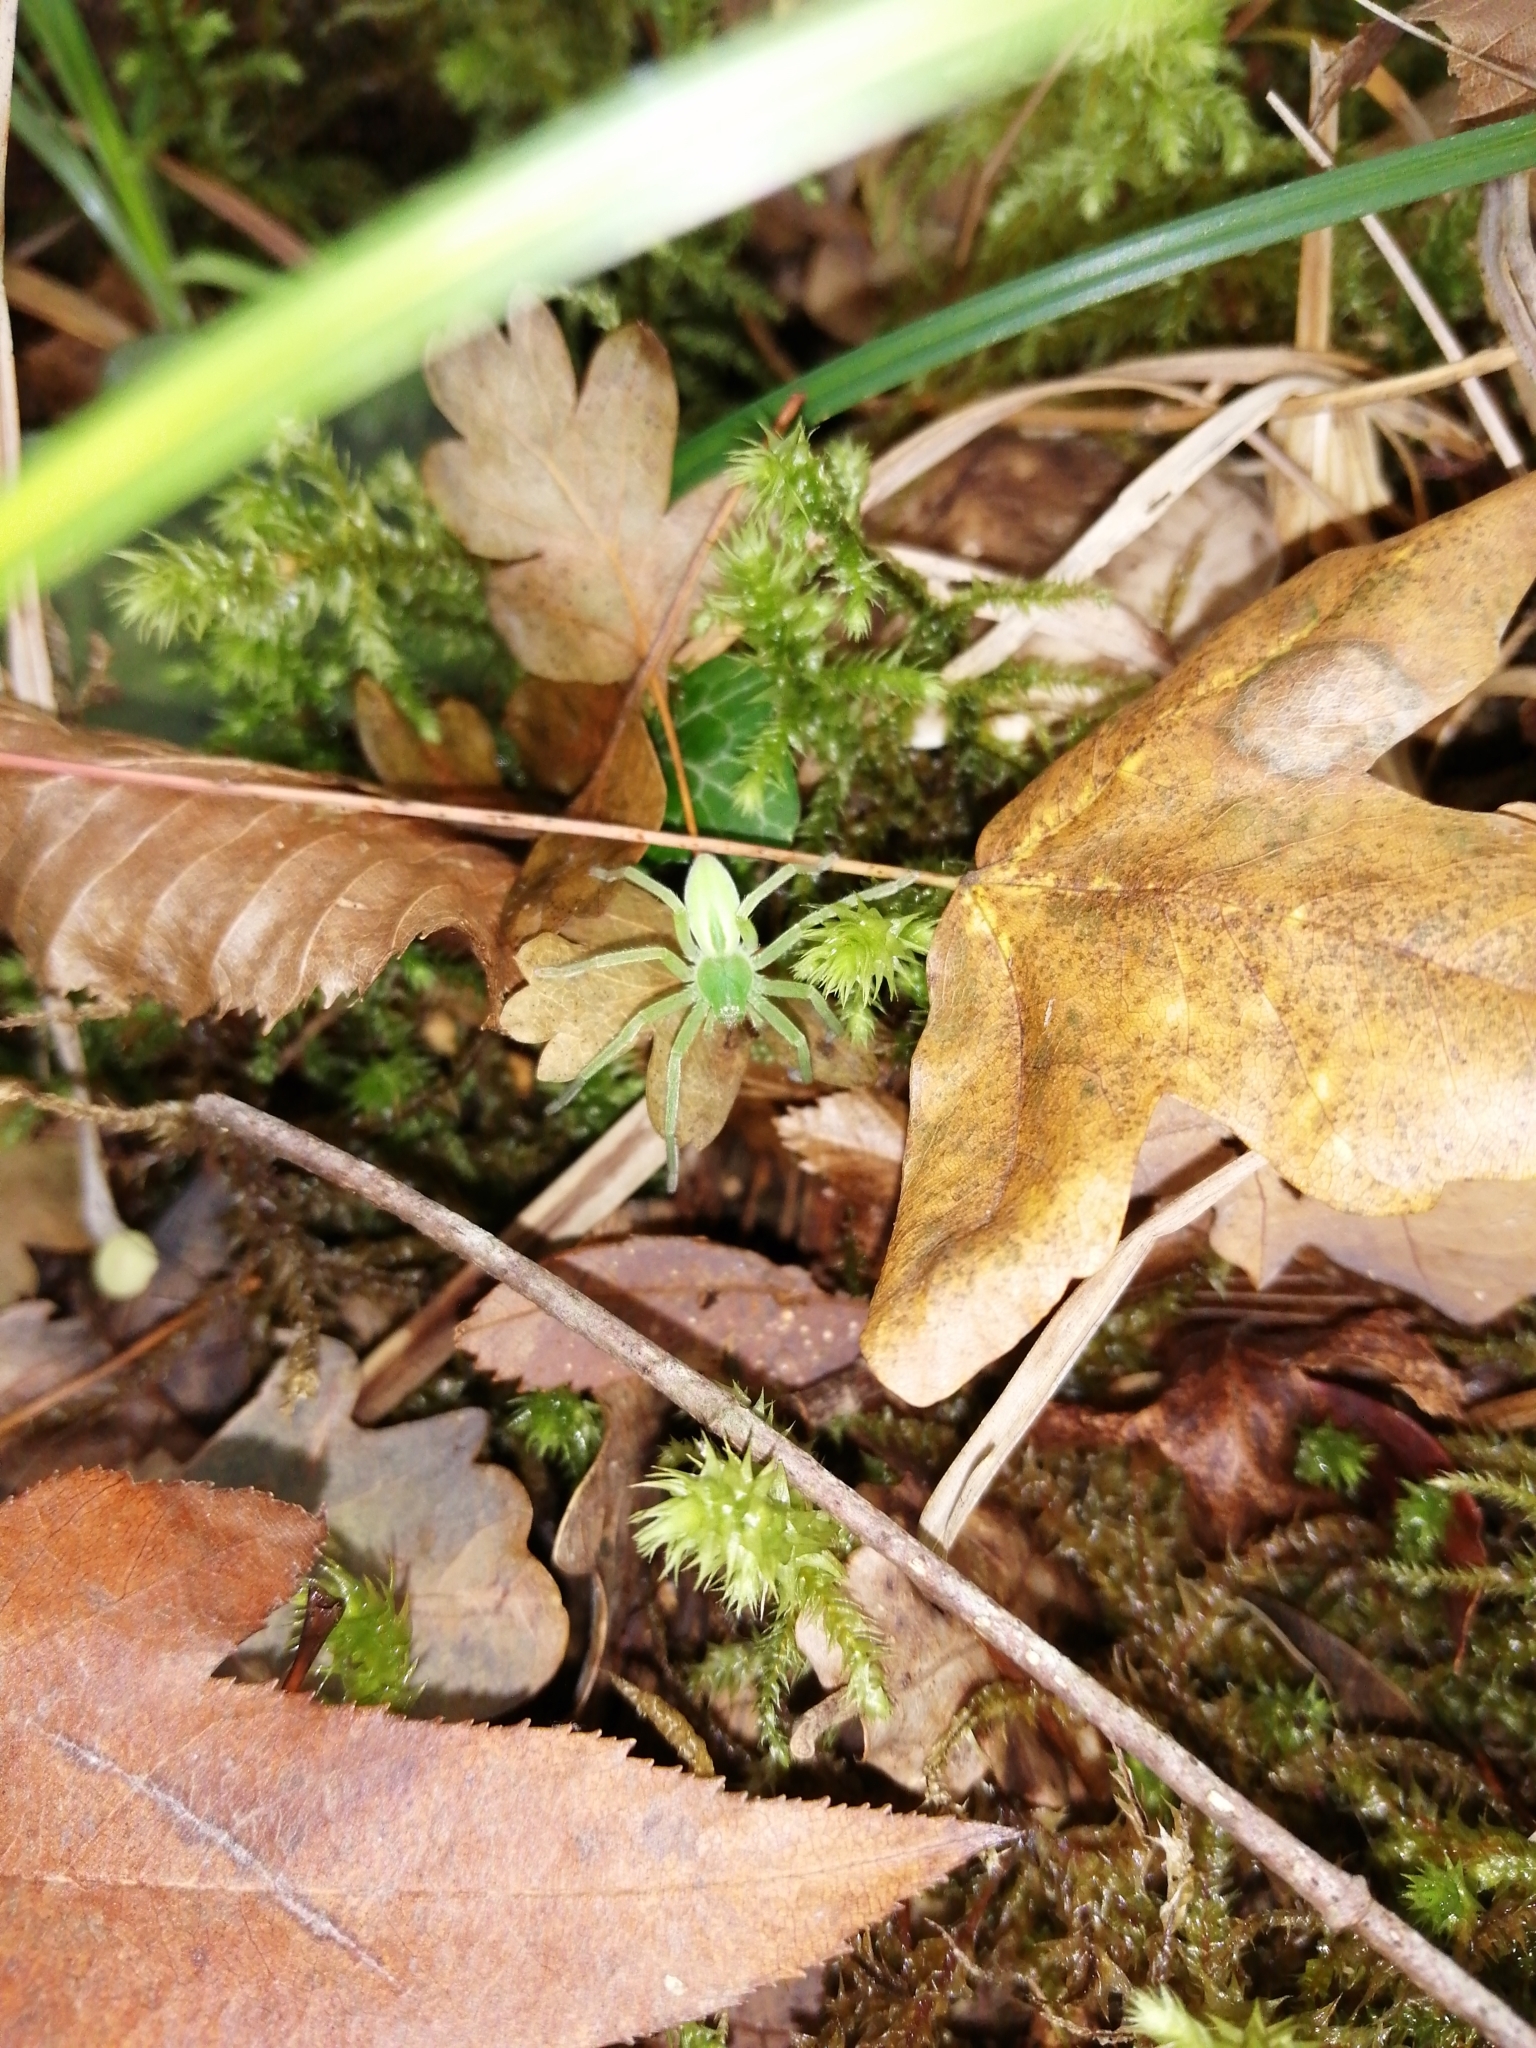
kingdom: Animalia
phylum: Arthropoda
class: Arachnida
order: Araneae
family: Sparassidae
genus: Micrommata
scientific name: Micrommata virescens
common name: Green spider
